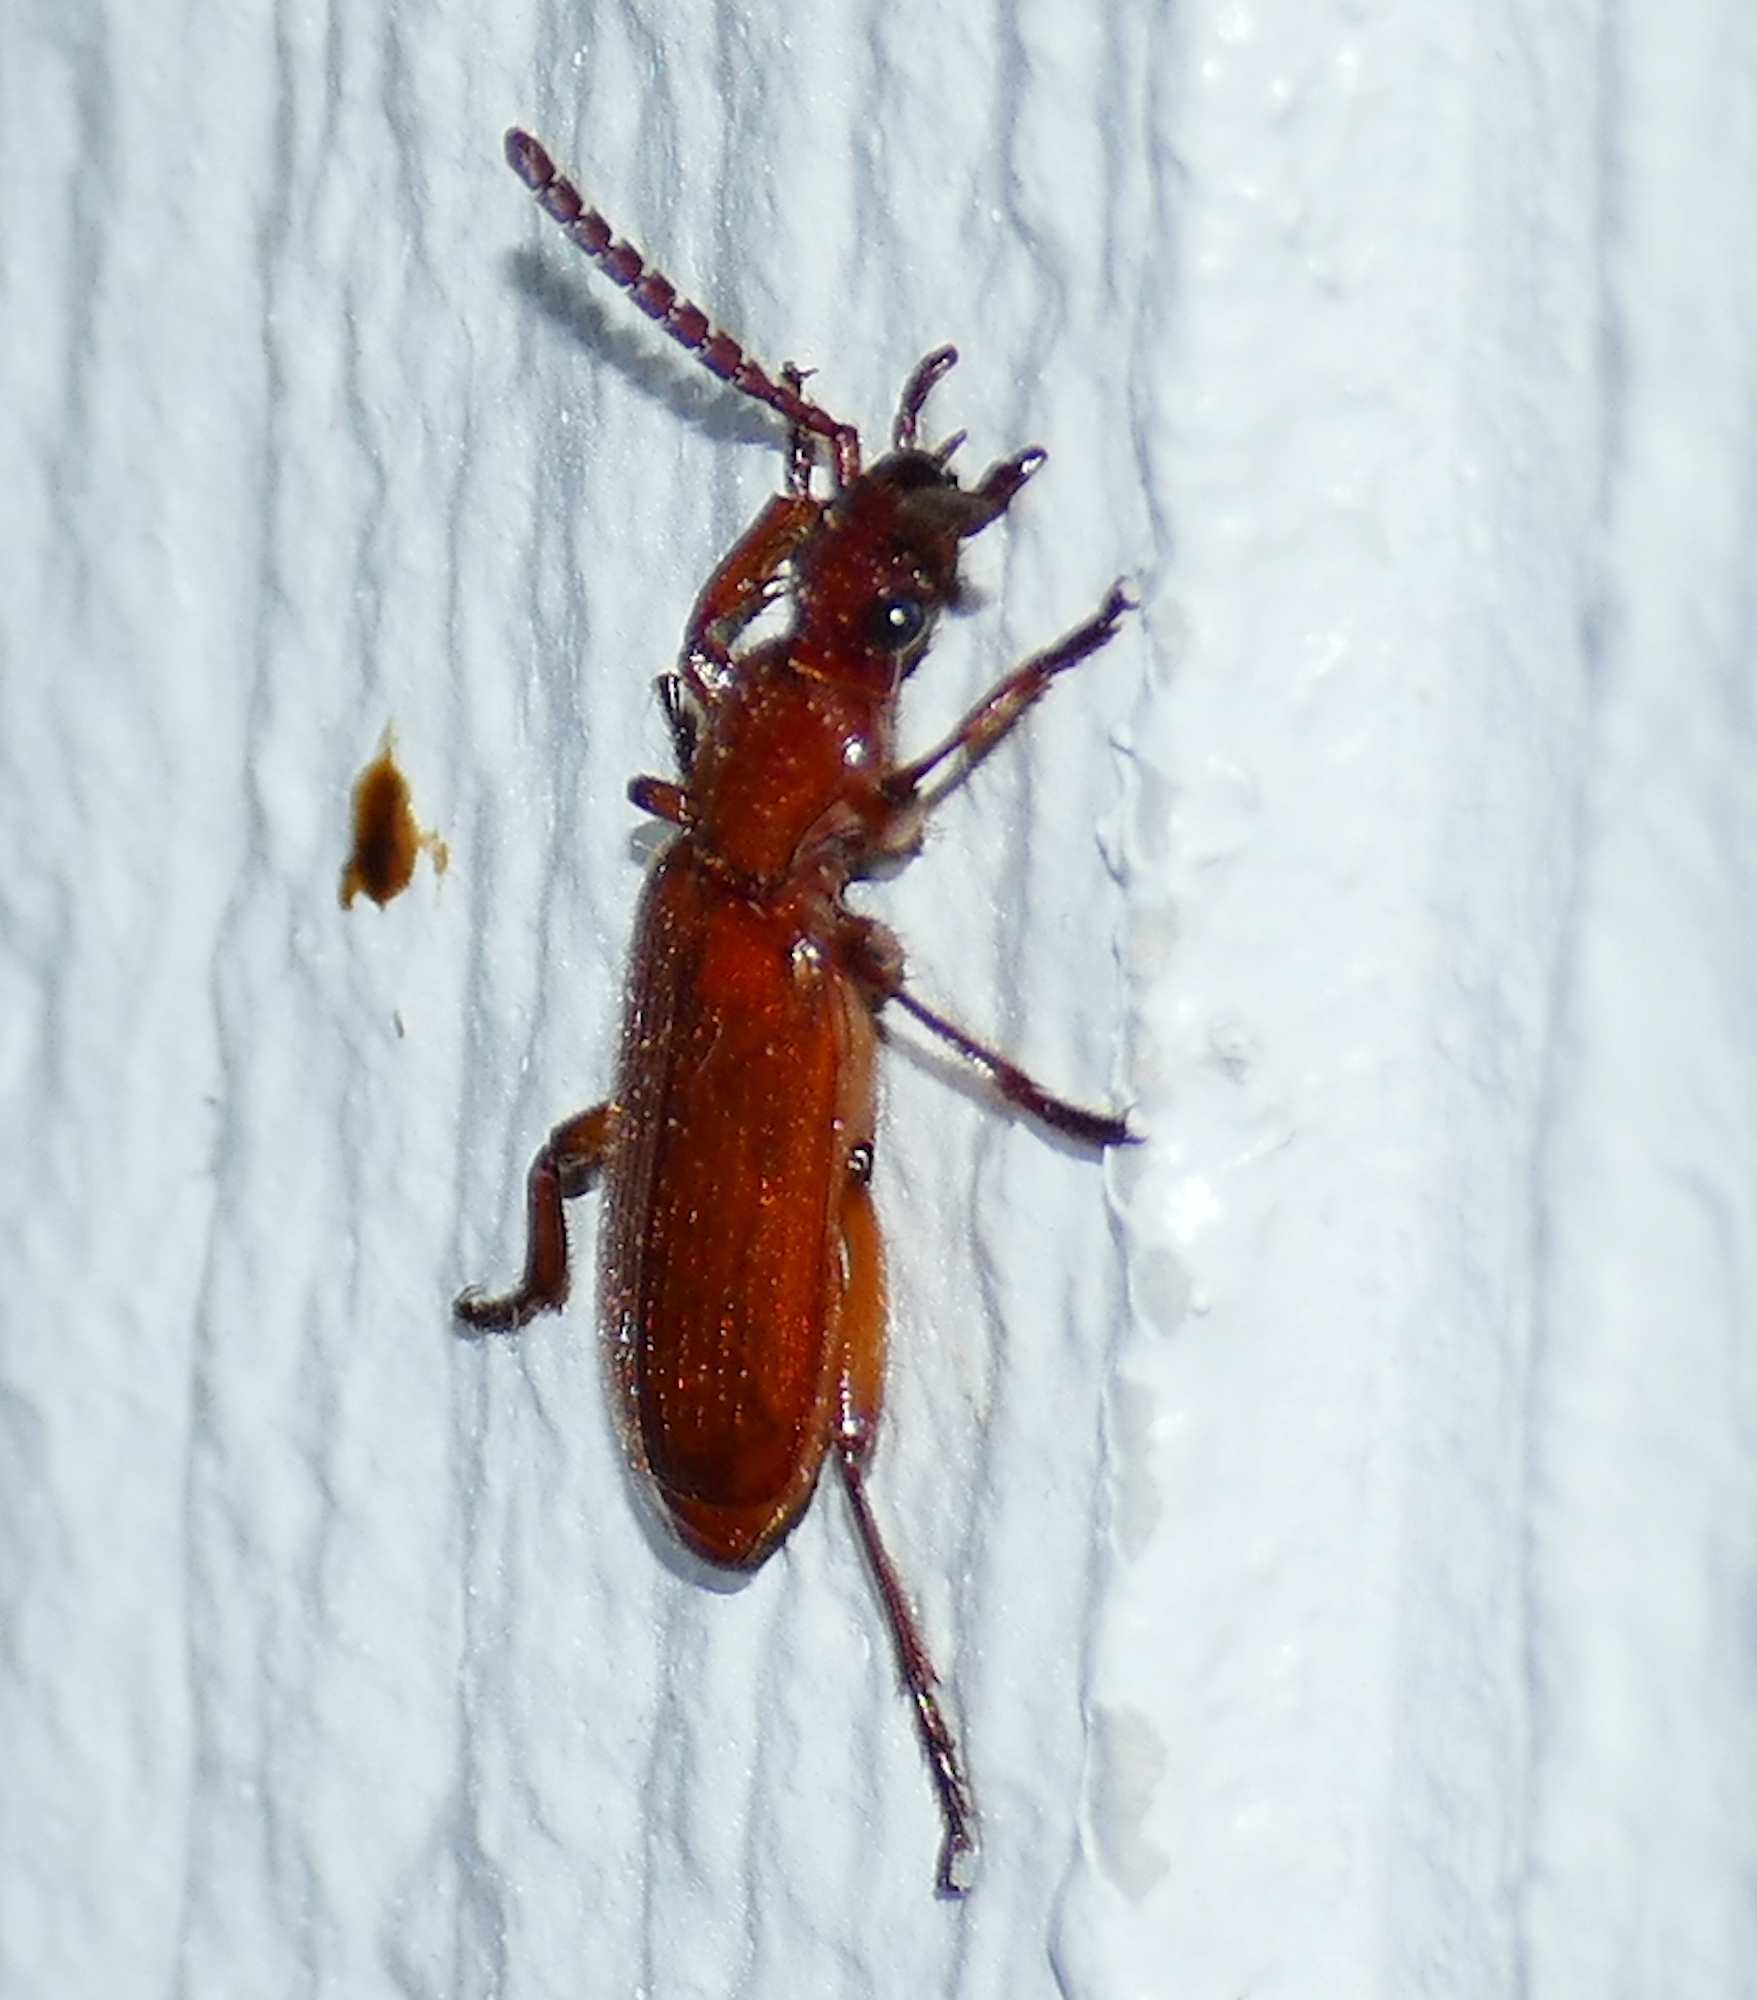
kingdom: Animalia
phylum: Arthropoda
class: Insecta
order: Coleoptera
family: Carabidae
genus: Helluomorphoides
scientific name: Helluomorphoides ferrugineus
